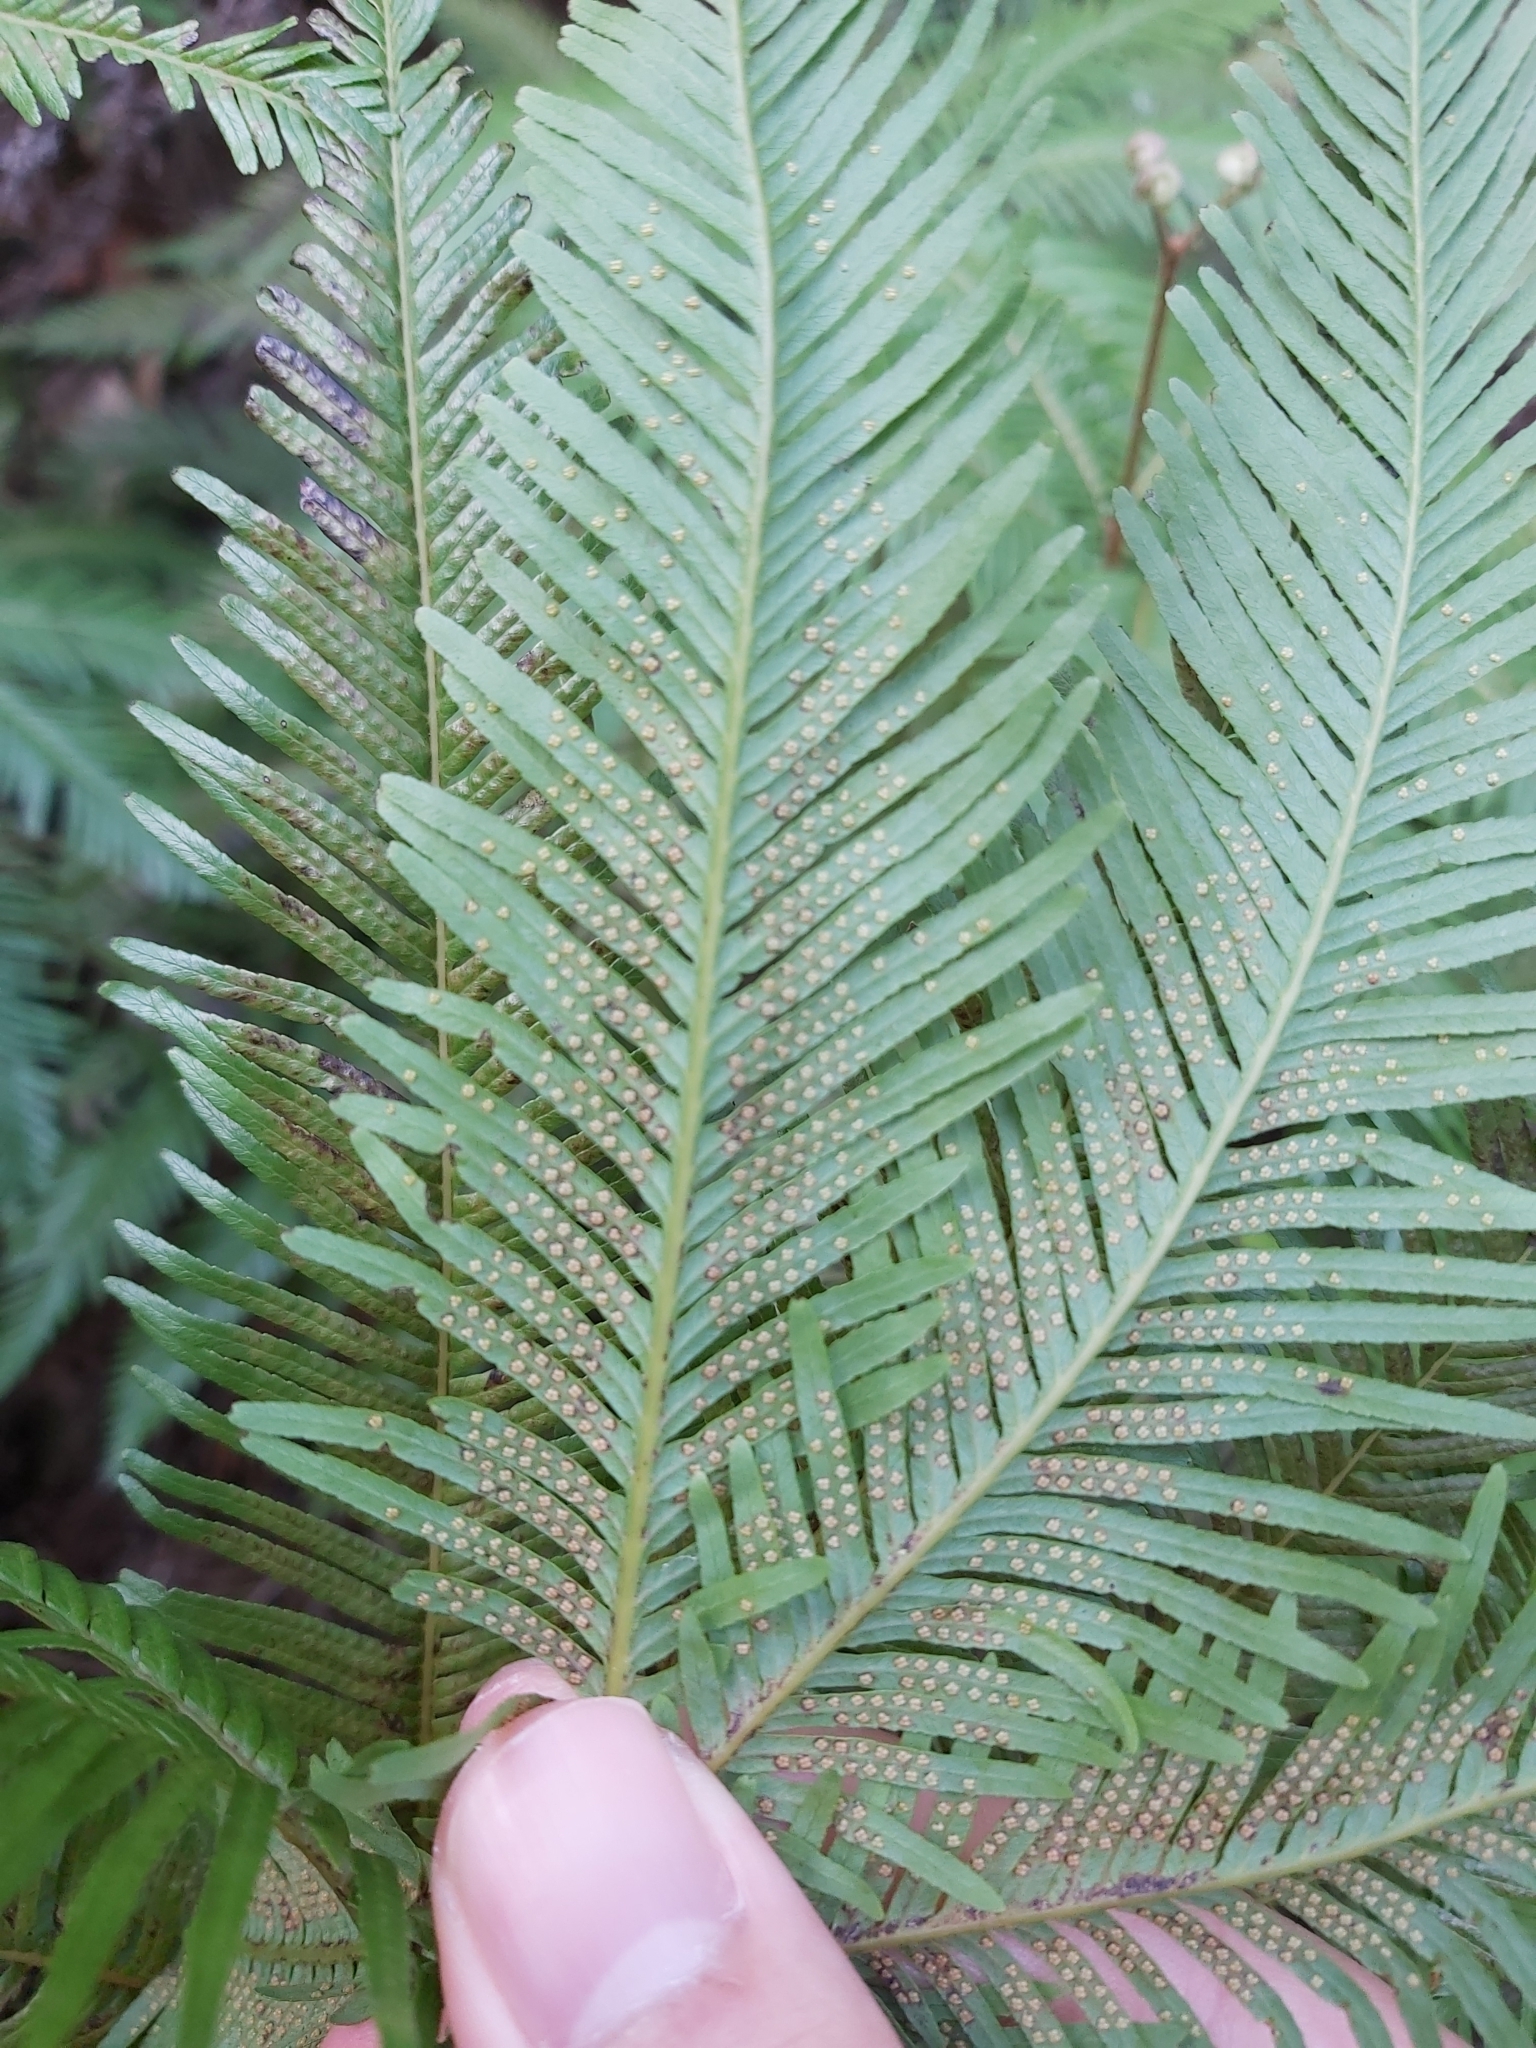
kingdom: Plantae
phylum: Tracheophyta
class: Polypodiopsida
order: Gleicheniales
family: Gleicheniaceae
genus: Sticherus
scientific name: Sticherus flabellatus
